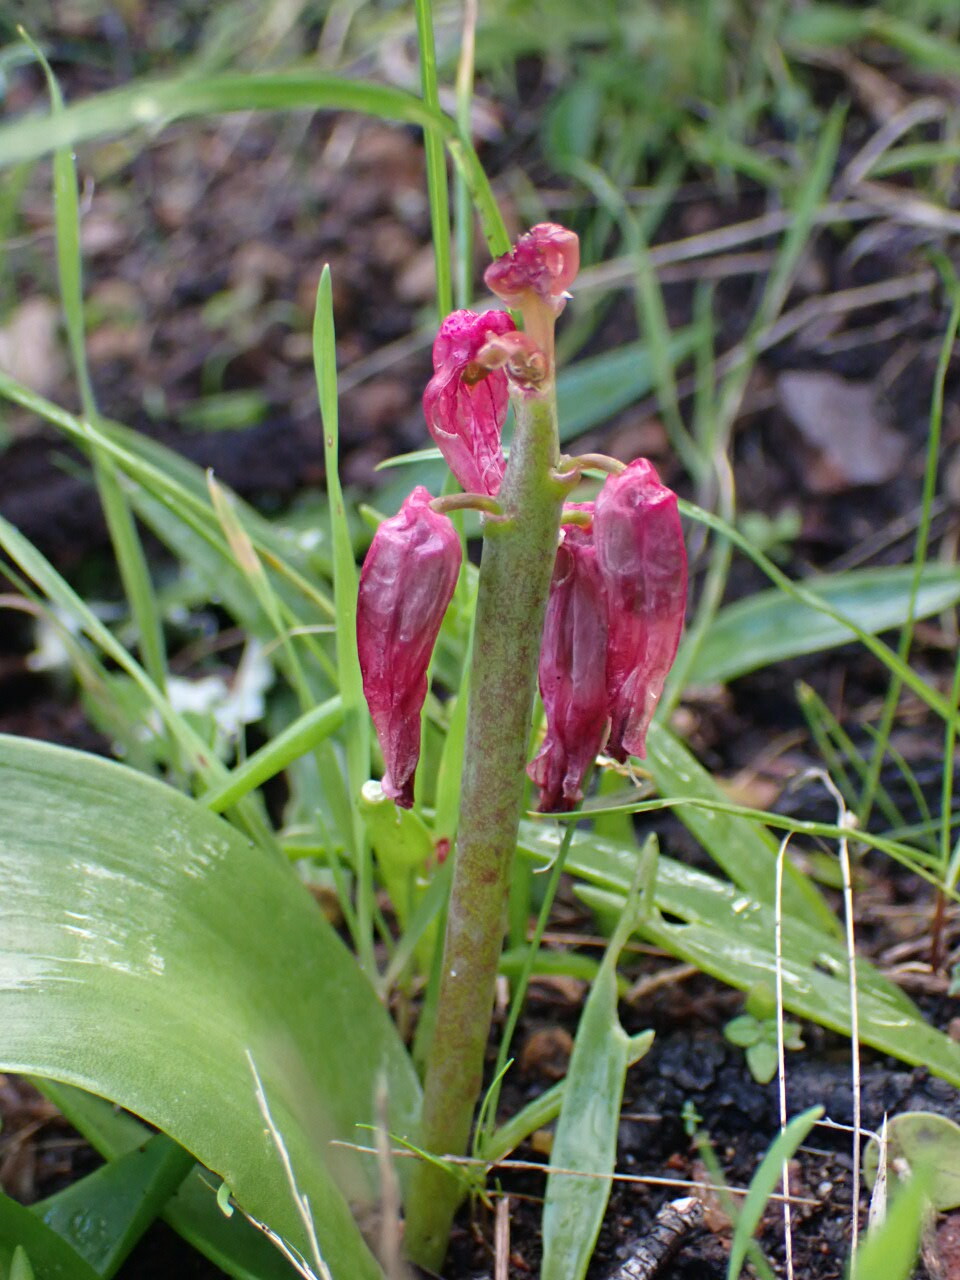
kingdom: Plantae
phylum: Tracheophyta
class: Liliopsida
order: Asparagales
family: Asparagaceae
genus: Lachenalia
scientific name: Lachenalia bulbifera
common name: Red lachenalia
